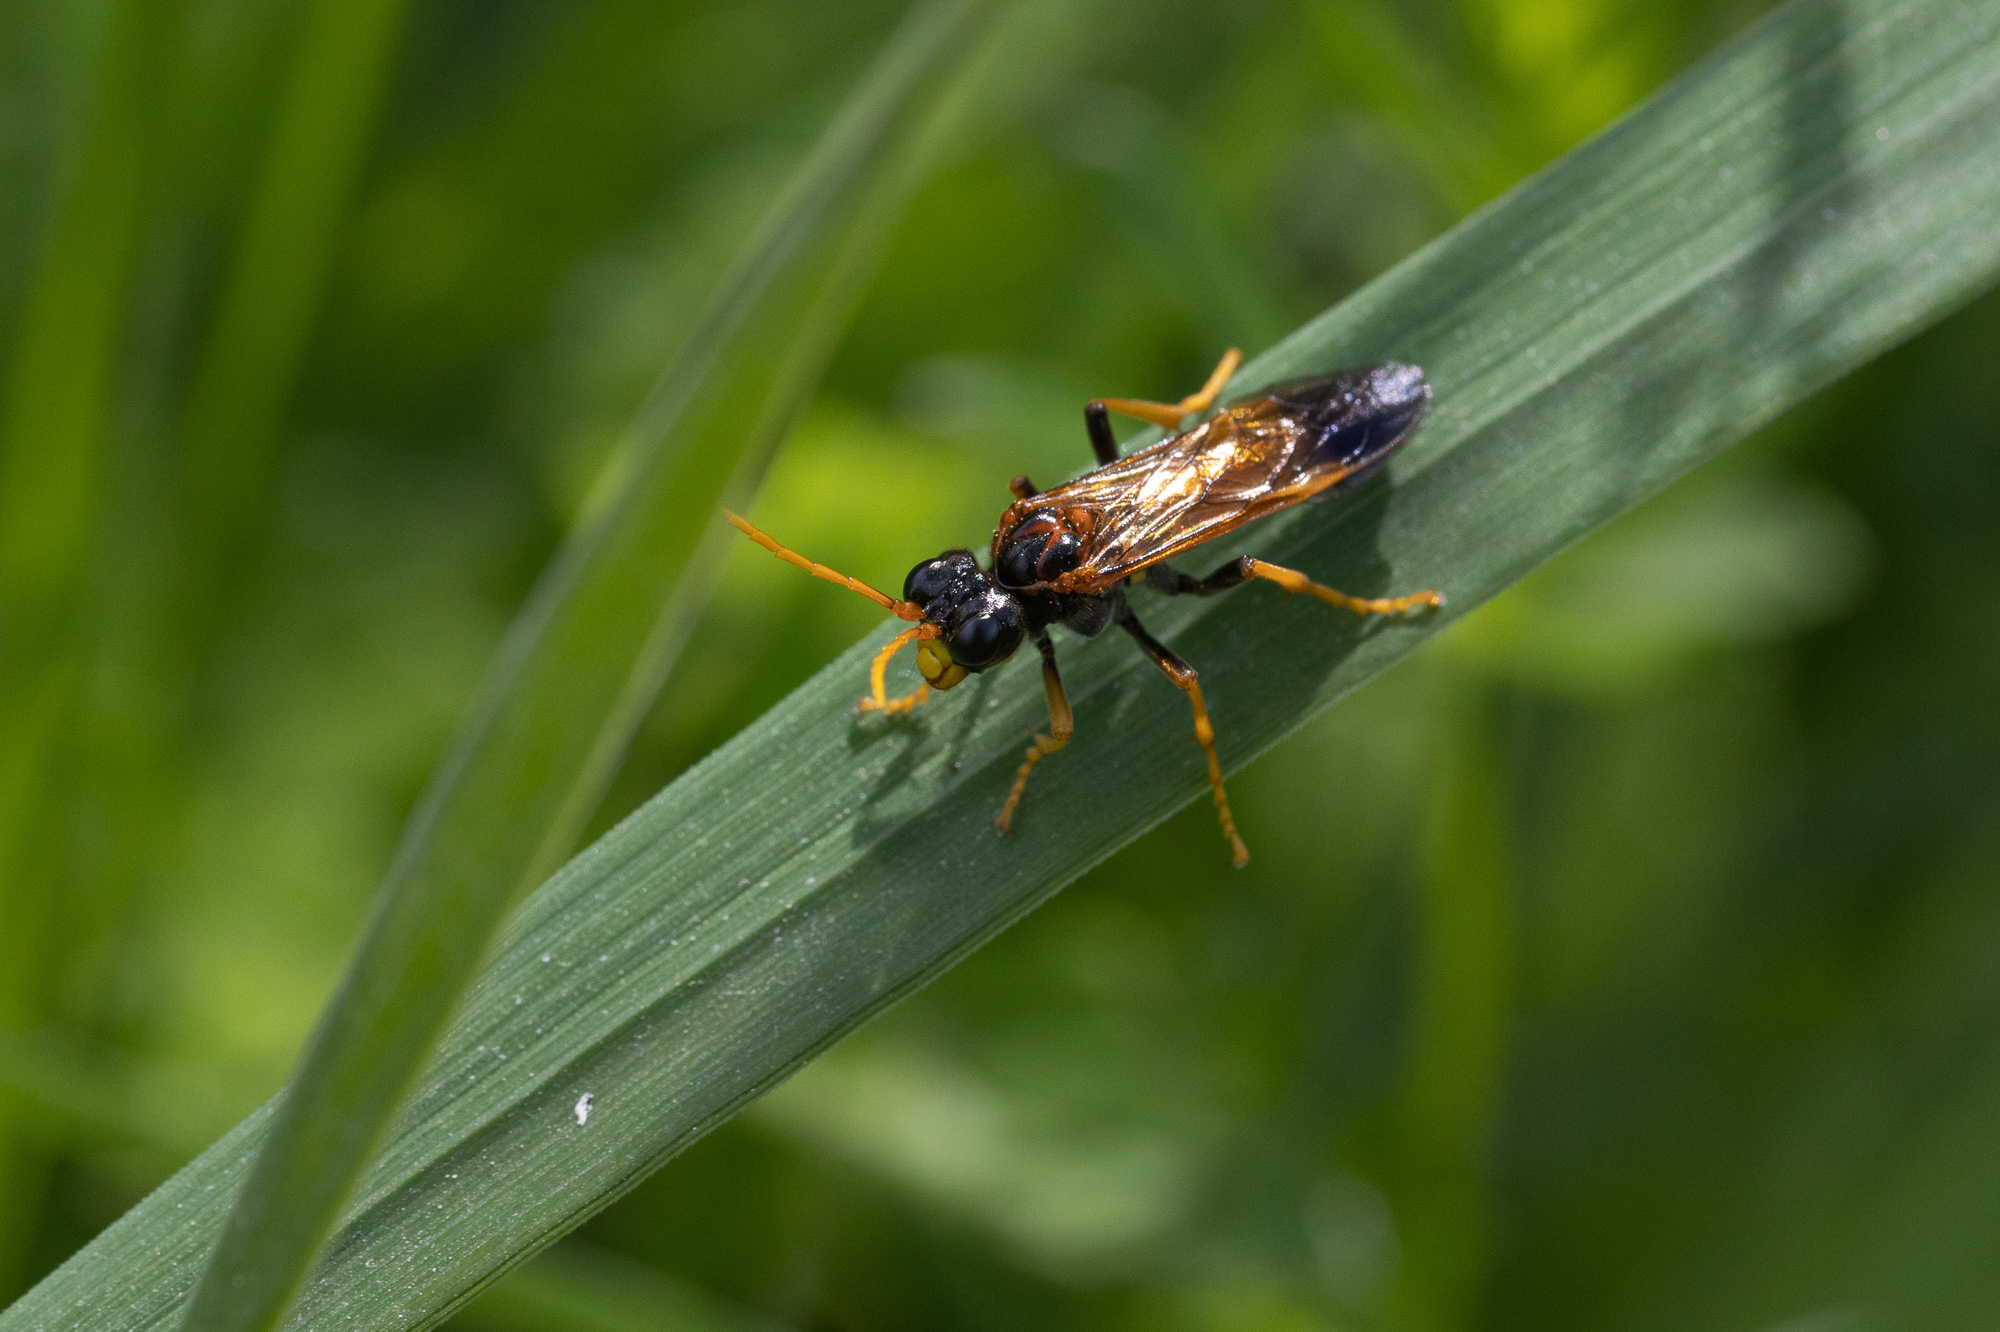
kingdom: Animalia
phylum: Arthropoda
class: Insecta
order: Hymenoptera
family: Tenthredinidae
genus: Tenthredo
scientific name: Tenthredo campestris
